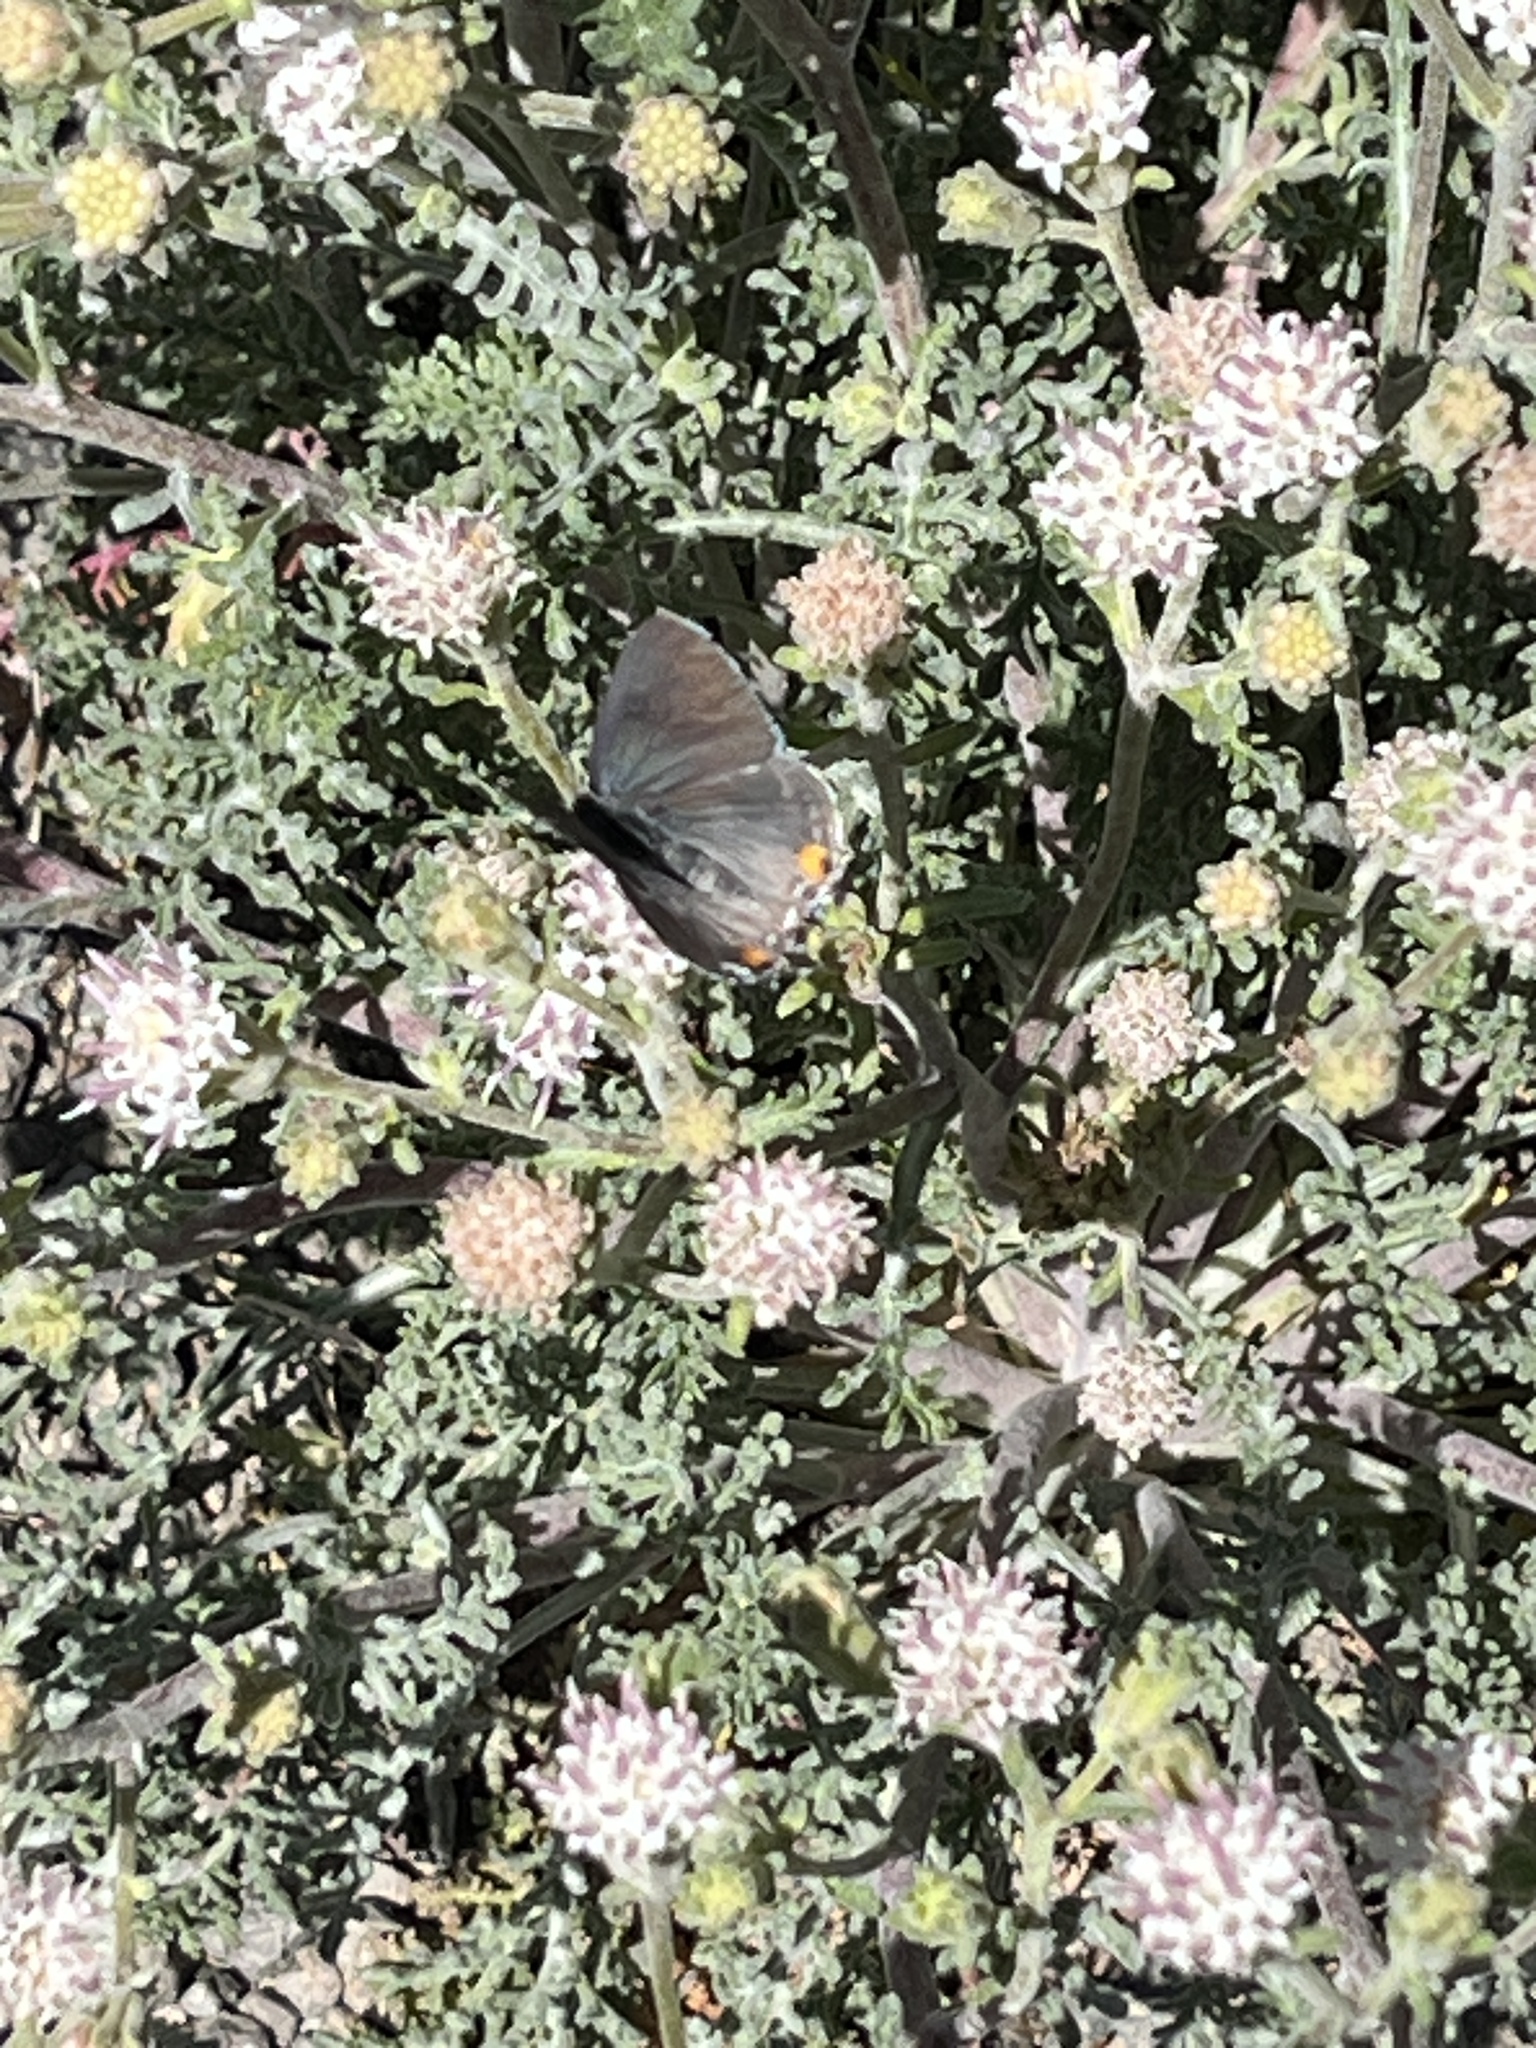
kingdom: Animalia
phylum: Arthropoda
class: Insecta
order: Lepidoptera
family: Lycaenidae
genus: Strymon
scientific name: Strymon melinus
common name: Gray hairstreak
